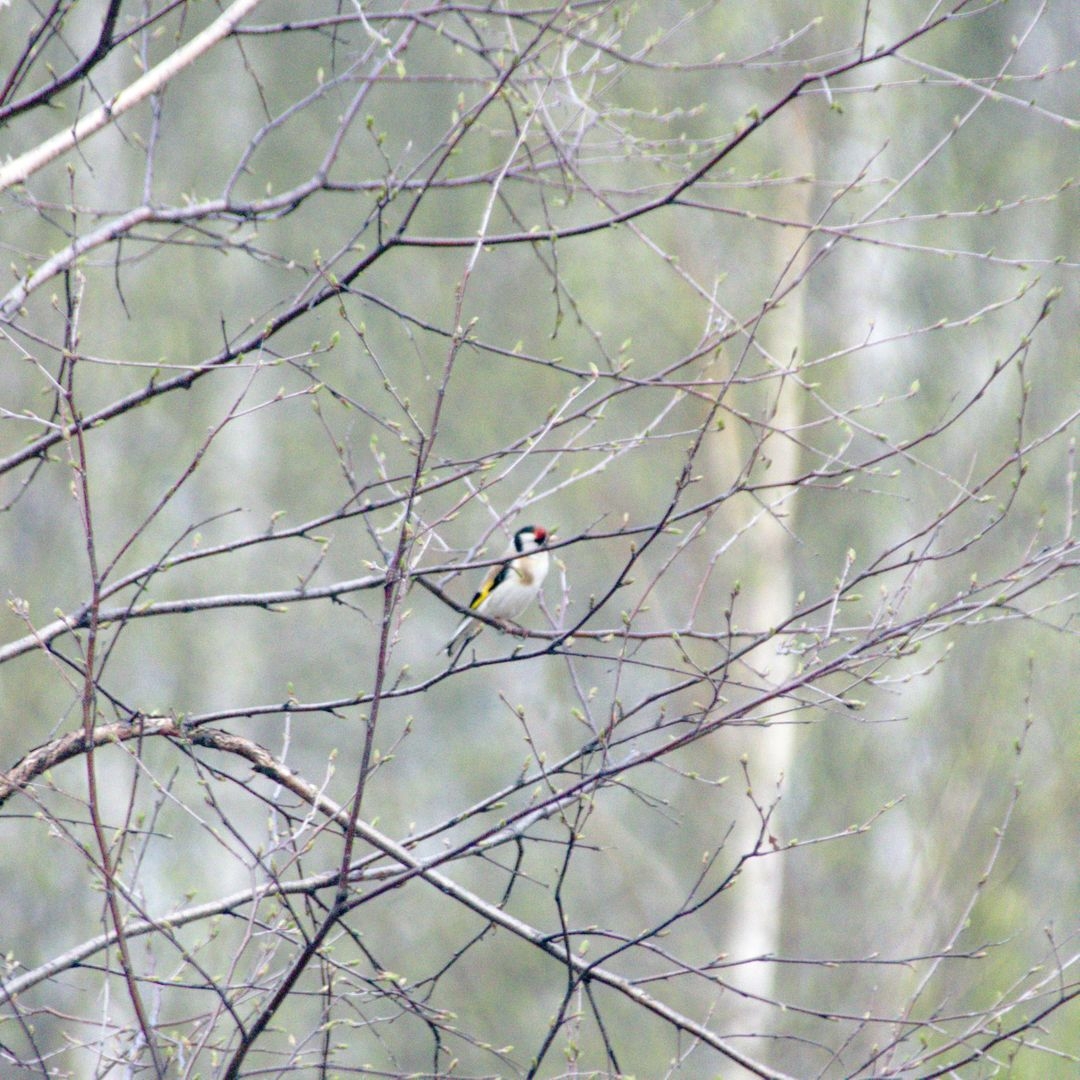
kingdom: Animalia
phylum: Chordata
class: Aves
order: Passeriformes
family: Fringillidae
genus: Carduelis
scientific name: Carduelis carduelis
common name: European goldfinch
